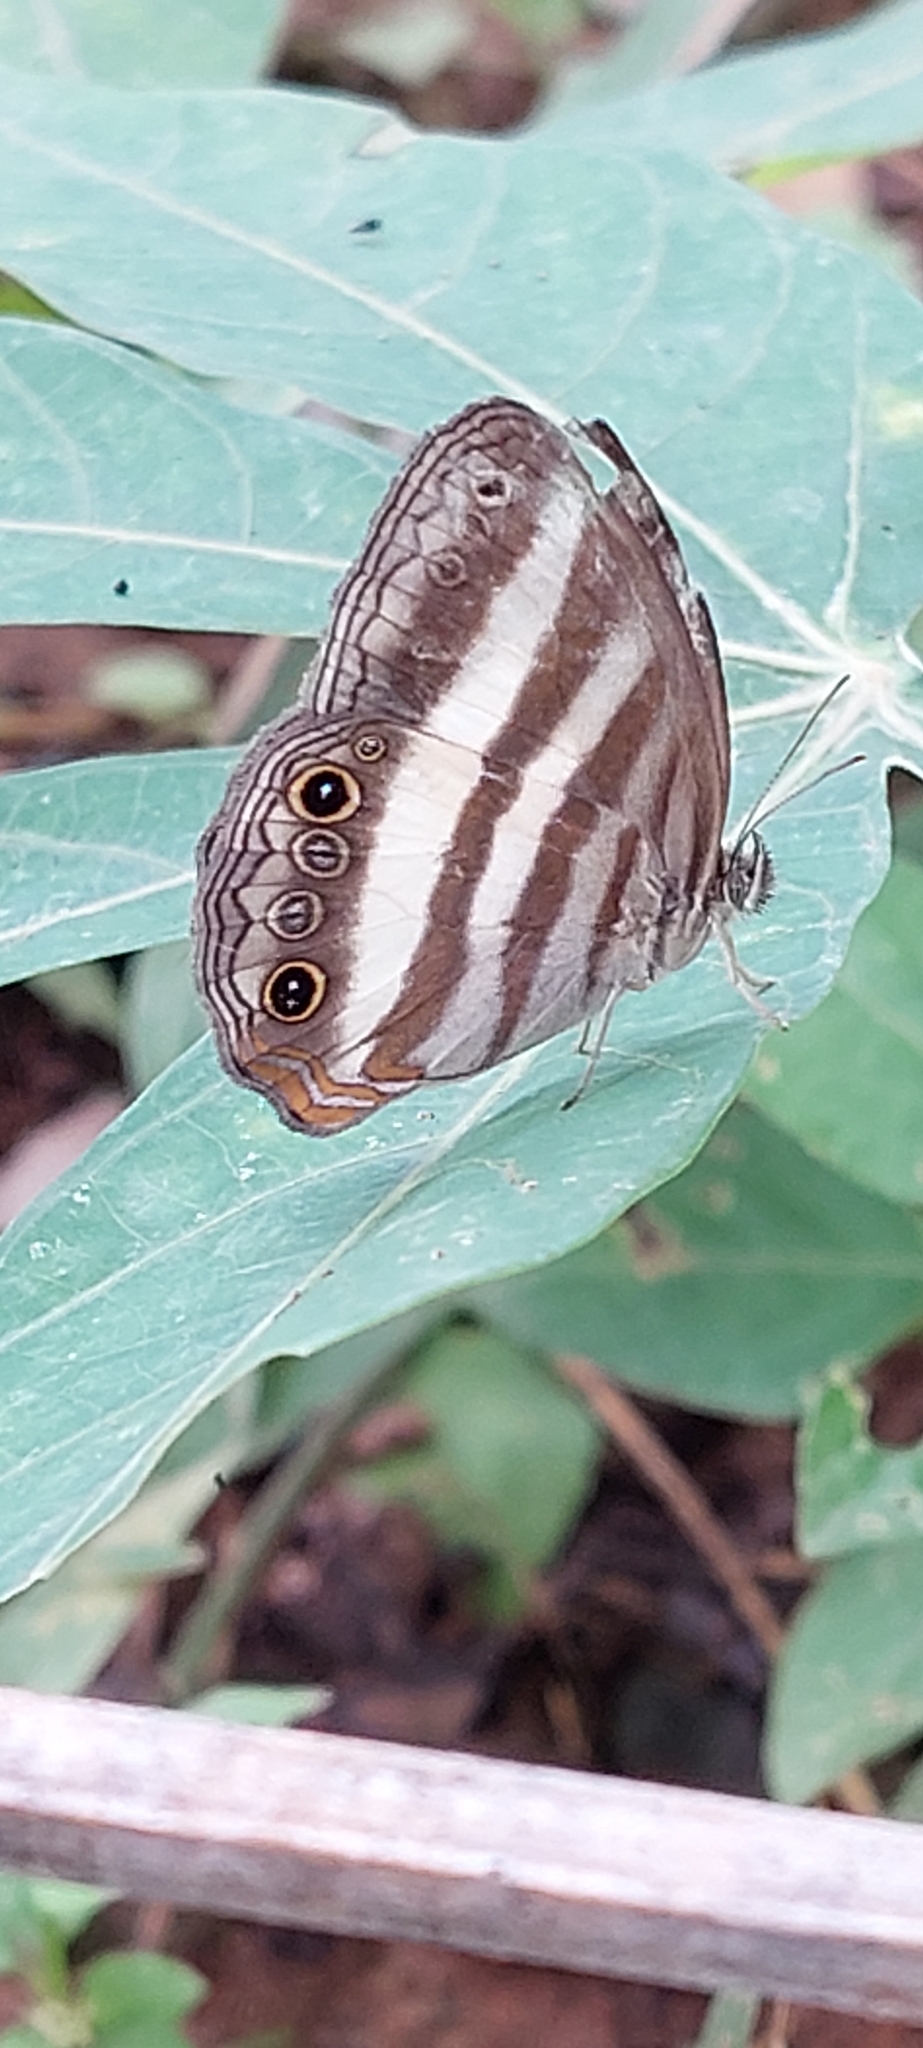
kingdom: Animalia
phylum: Arthropoda
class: Insecta
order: Lepidoptera
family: Nymphalidae
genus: Pareuptychia
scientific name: Pareuptychia hesione
